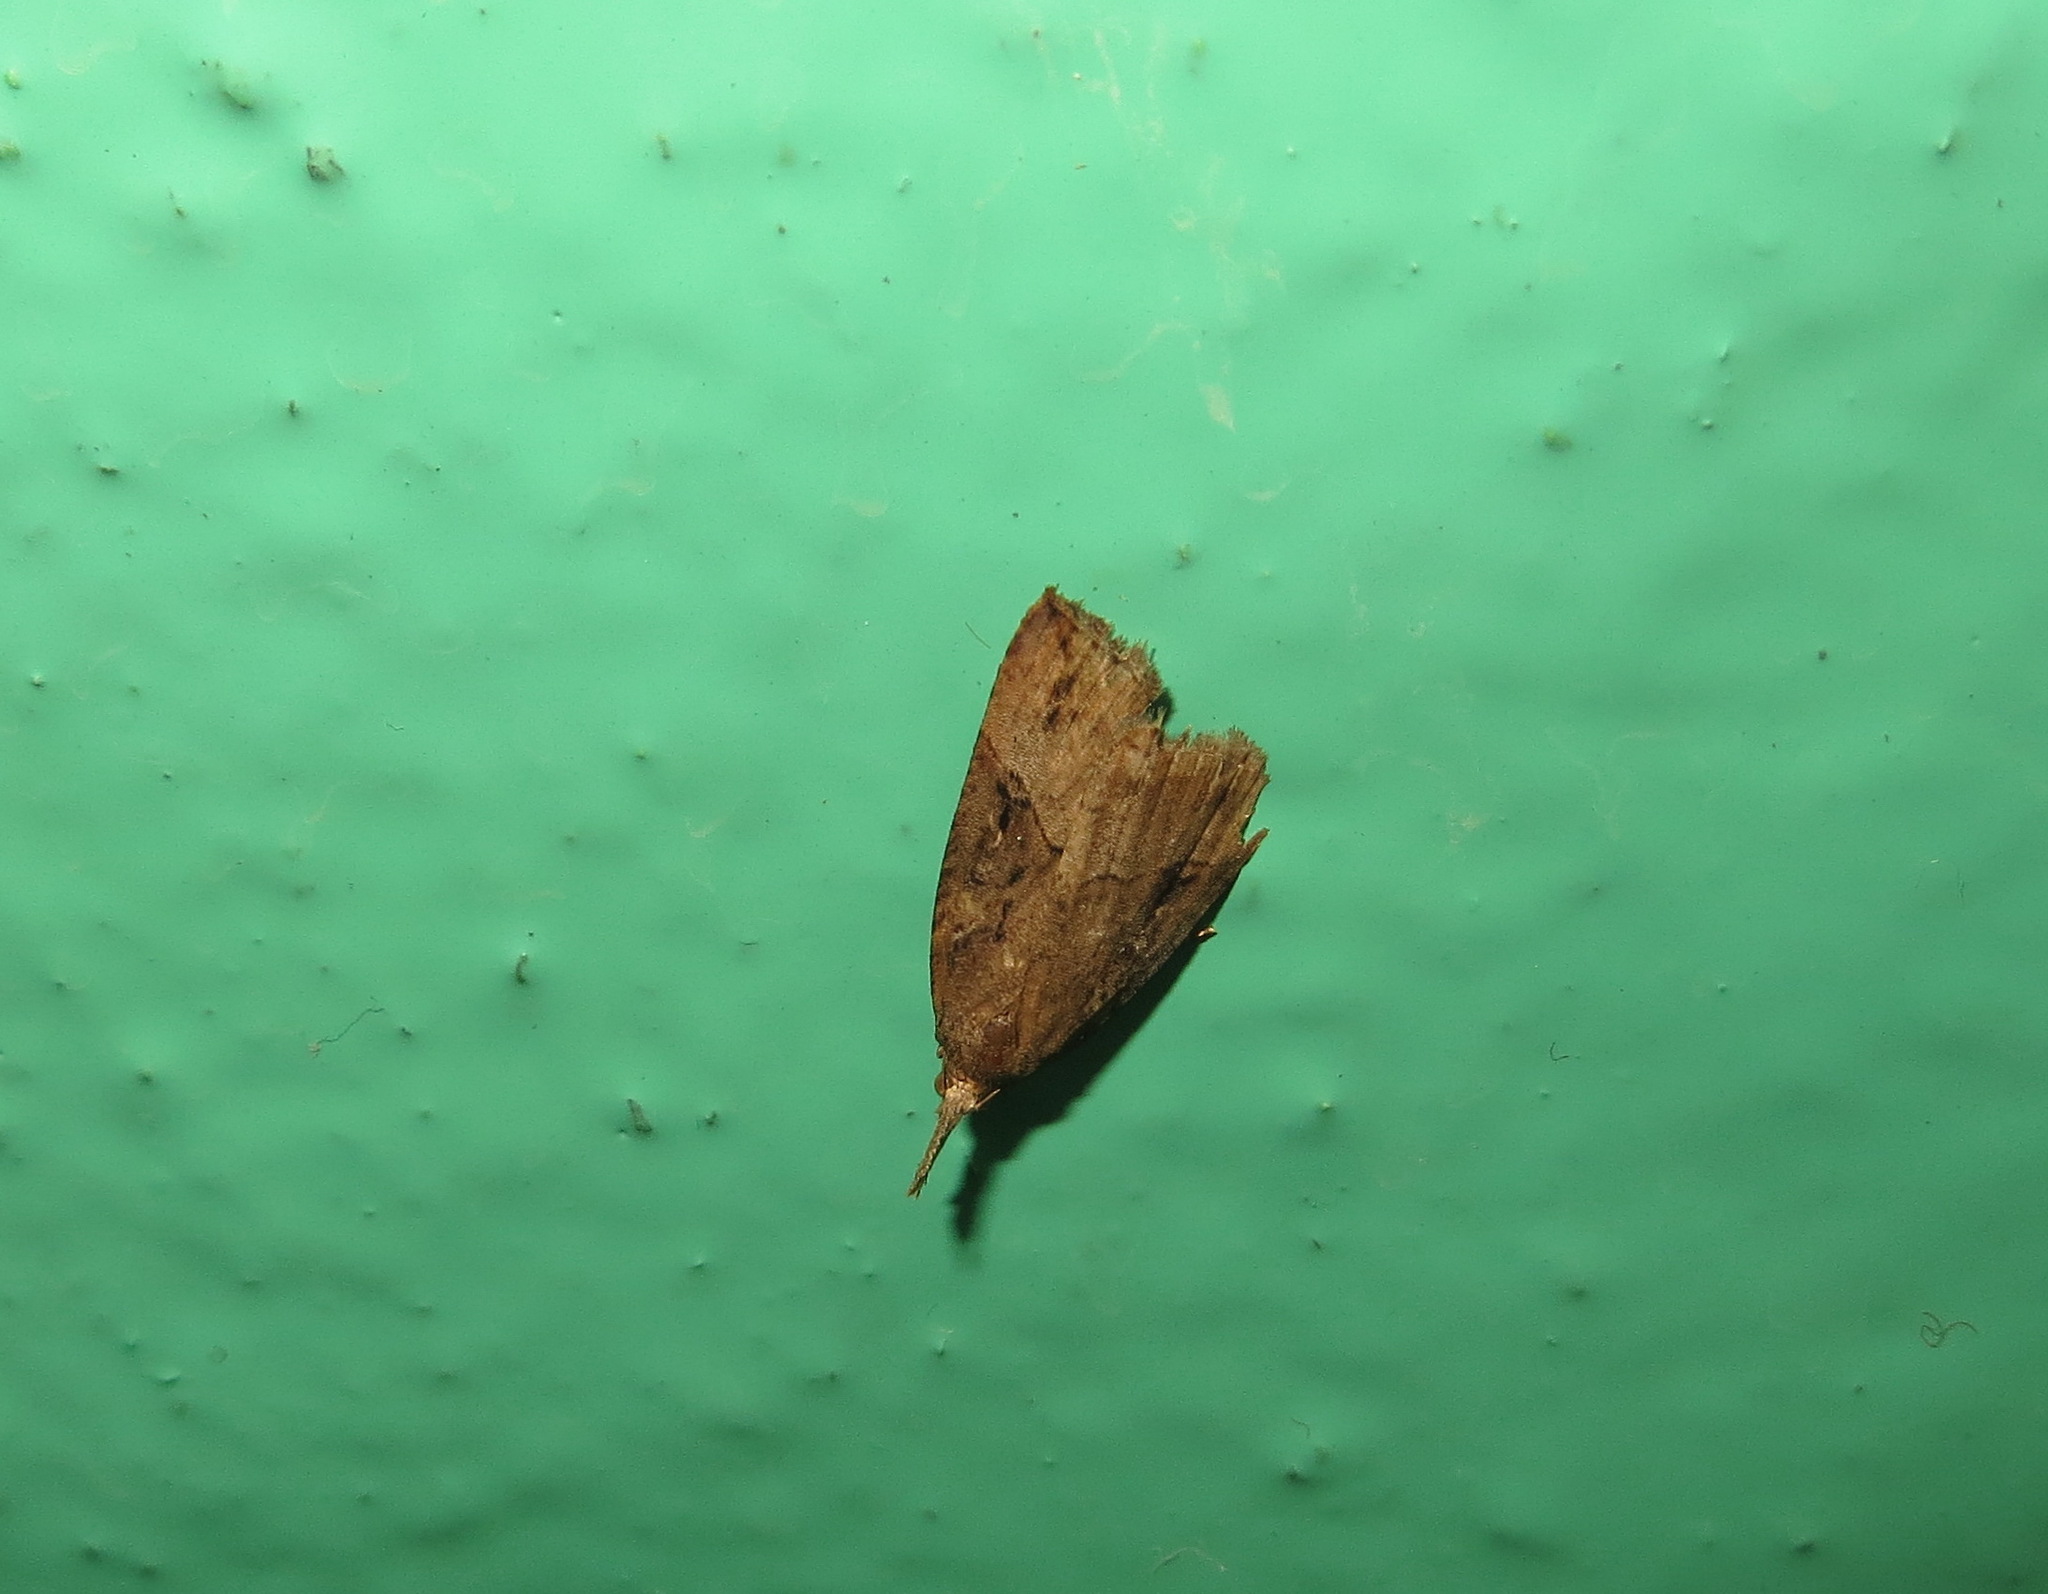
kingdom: Animalia
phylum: Arthropoda
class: Insecta
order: Lepidoptera
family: Erebidae
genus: Hypena
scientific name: Hypena rostralis
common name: Buttoned snout
